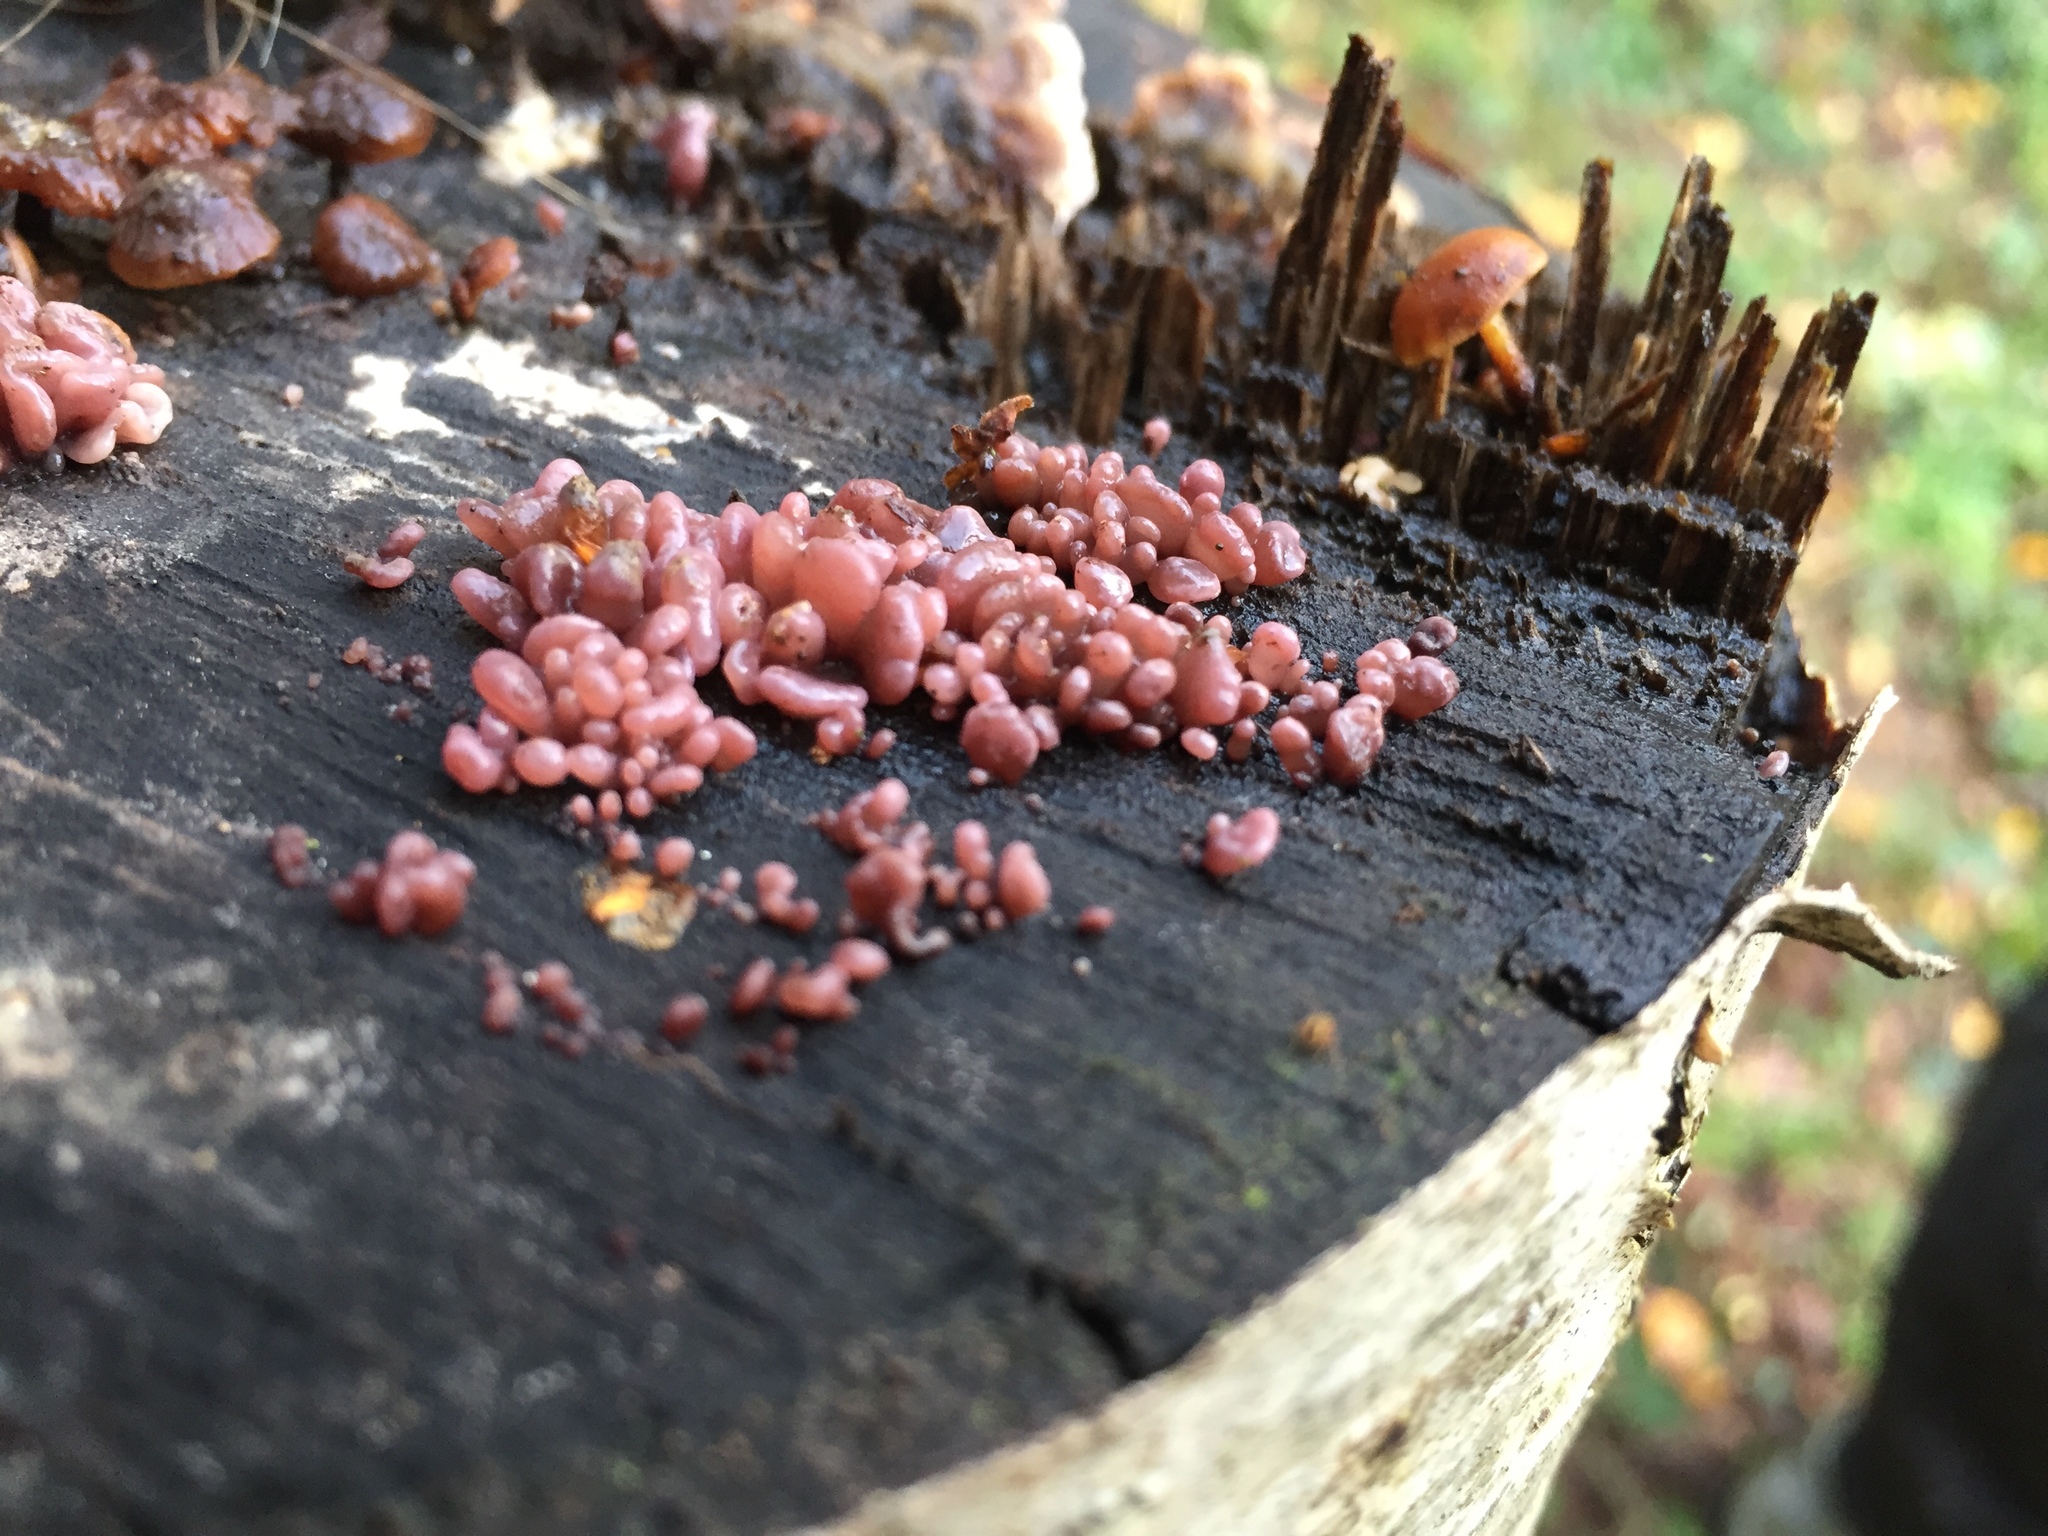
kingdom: Fungi
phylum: Ascomycota
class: Leotiomycetes
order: Helotiales
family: Gelatinodiscaceae
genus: Ascocoryne
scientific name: Ascocoryne sarcoides
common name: Purple jellydisc
